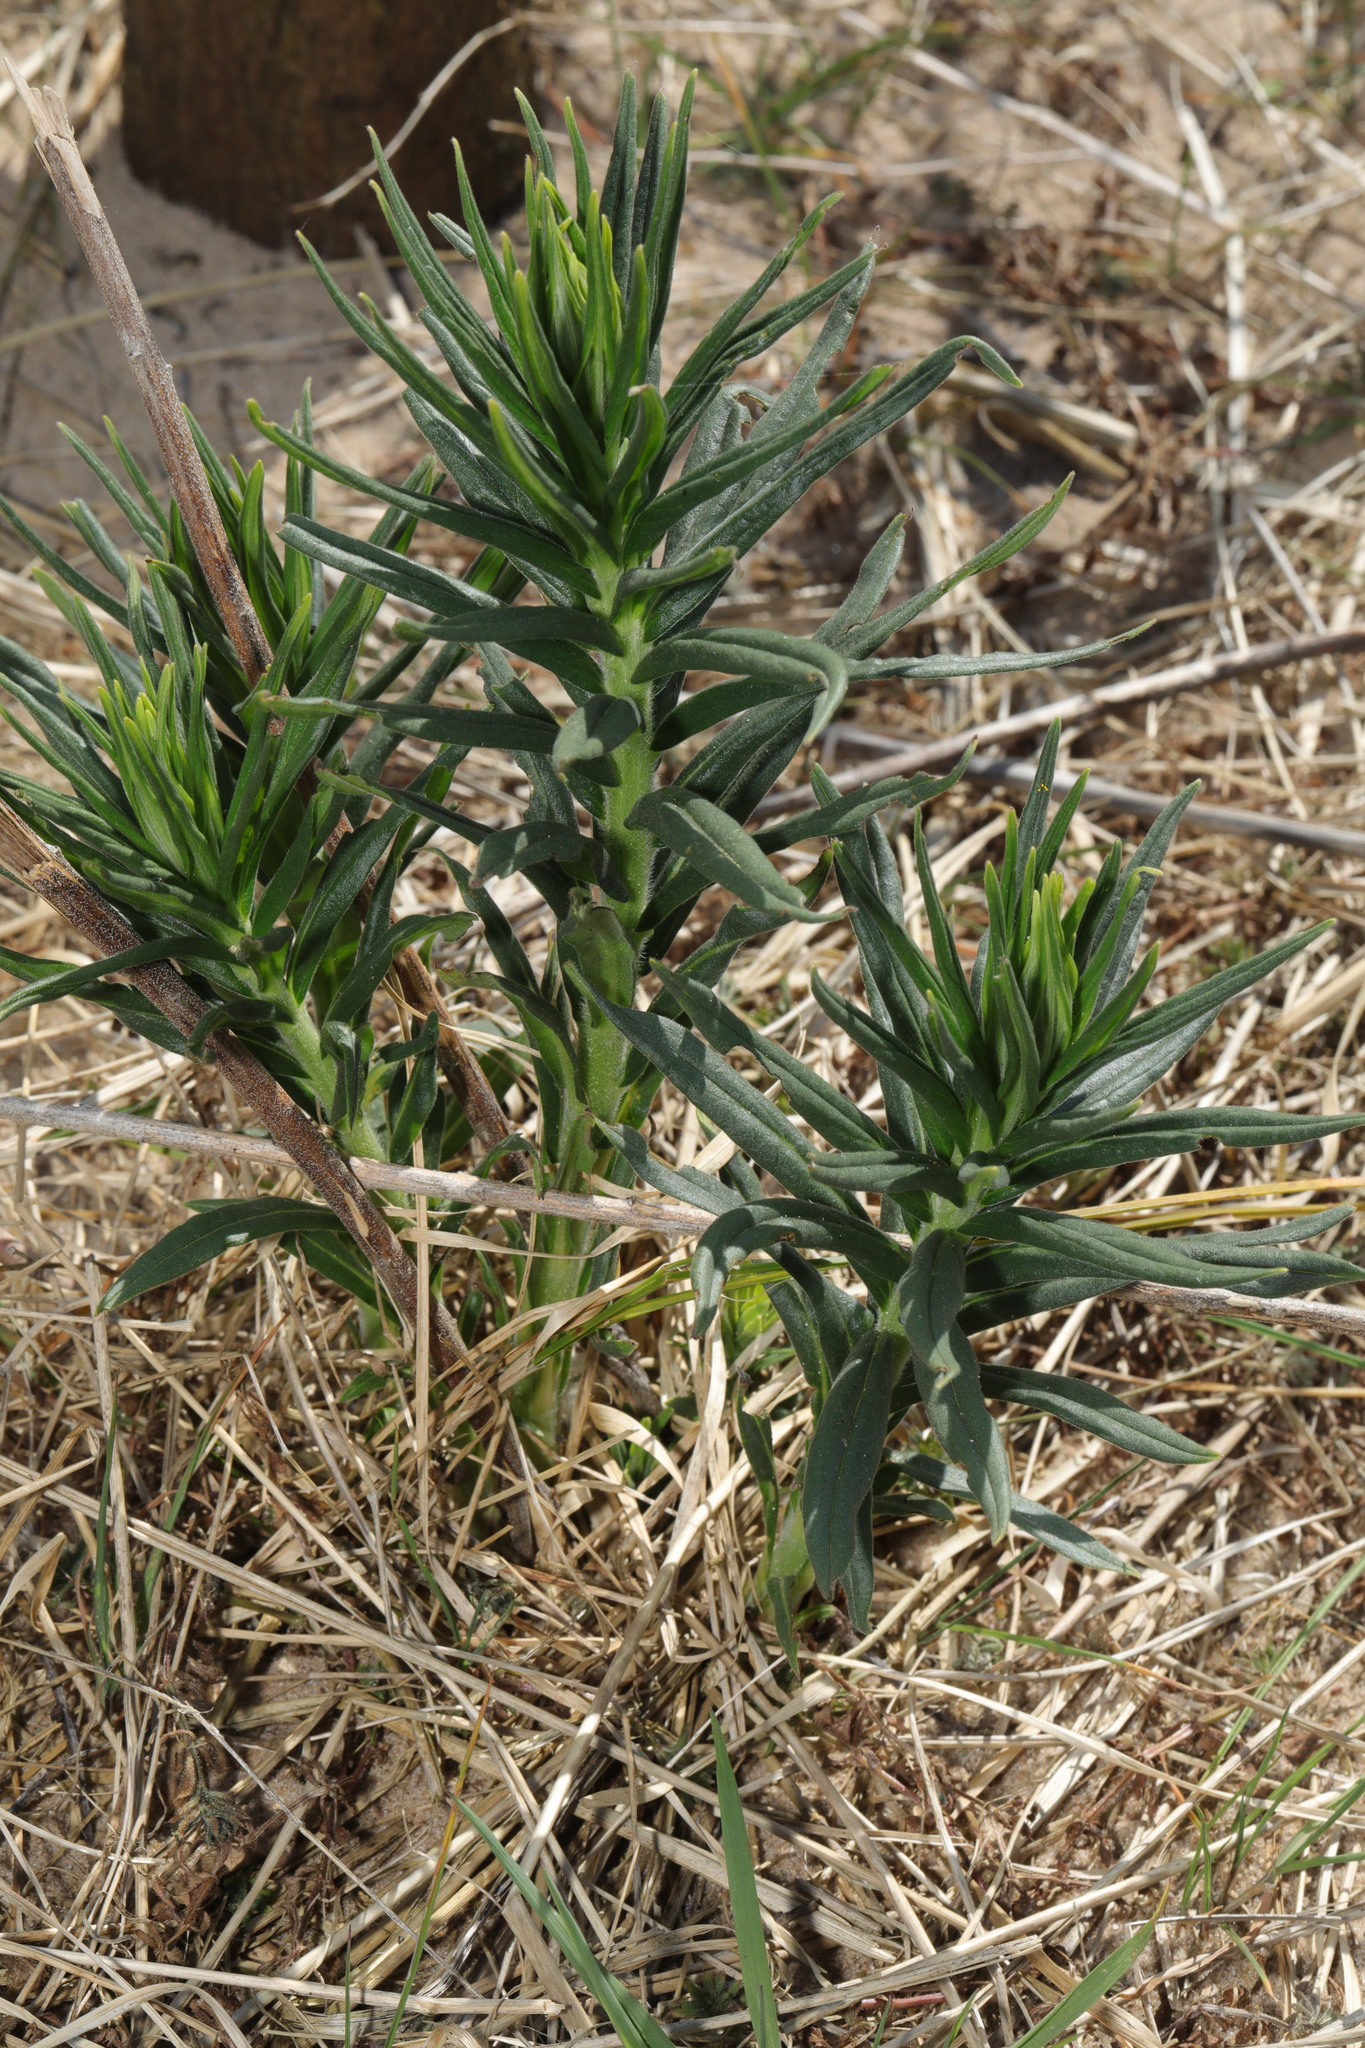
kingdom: Plantae
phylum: Tracheophyta
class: Magnoliopsida
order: Boraginales
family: Boraginaceae
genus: Lithospermum
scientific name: Lithospermum officinale
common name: Common gromwell
